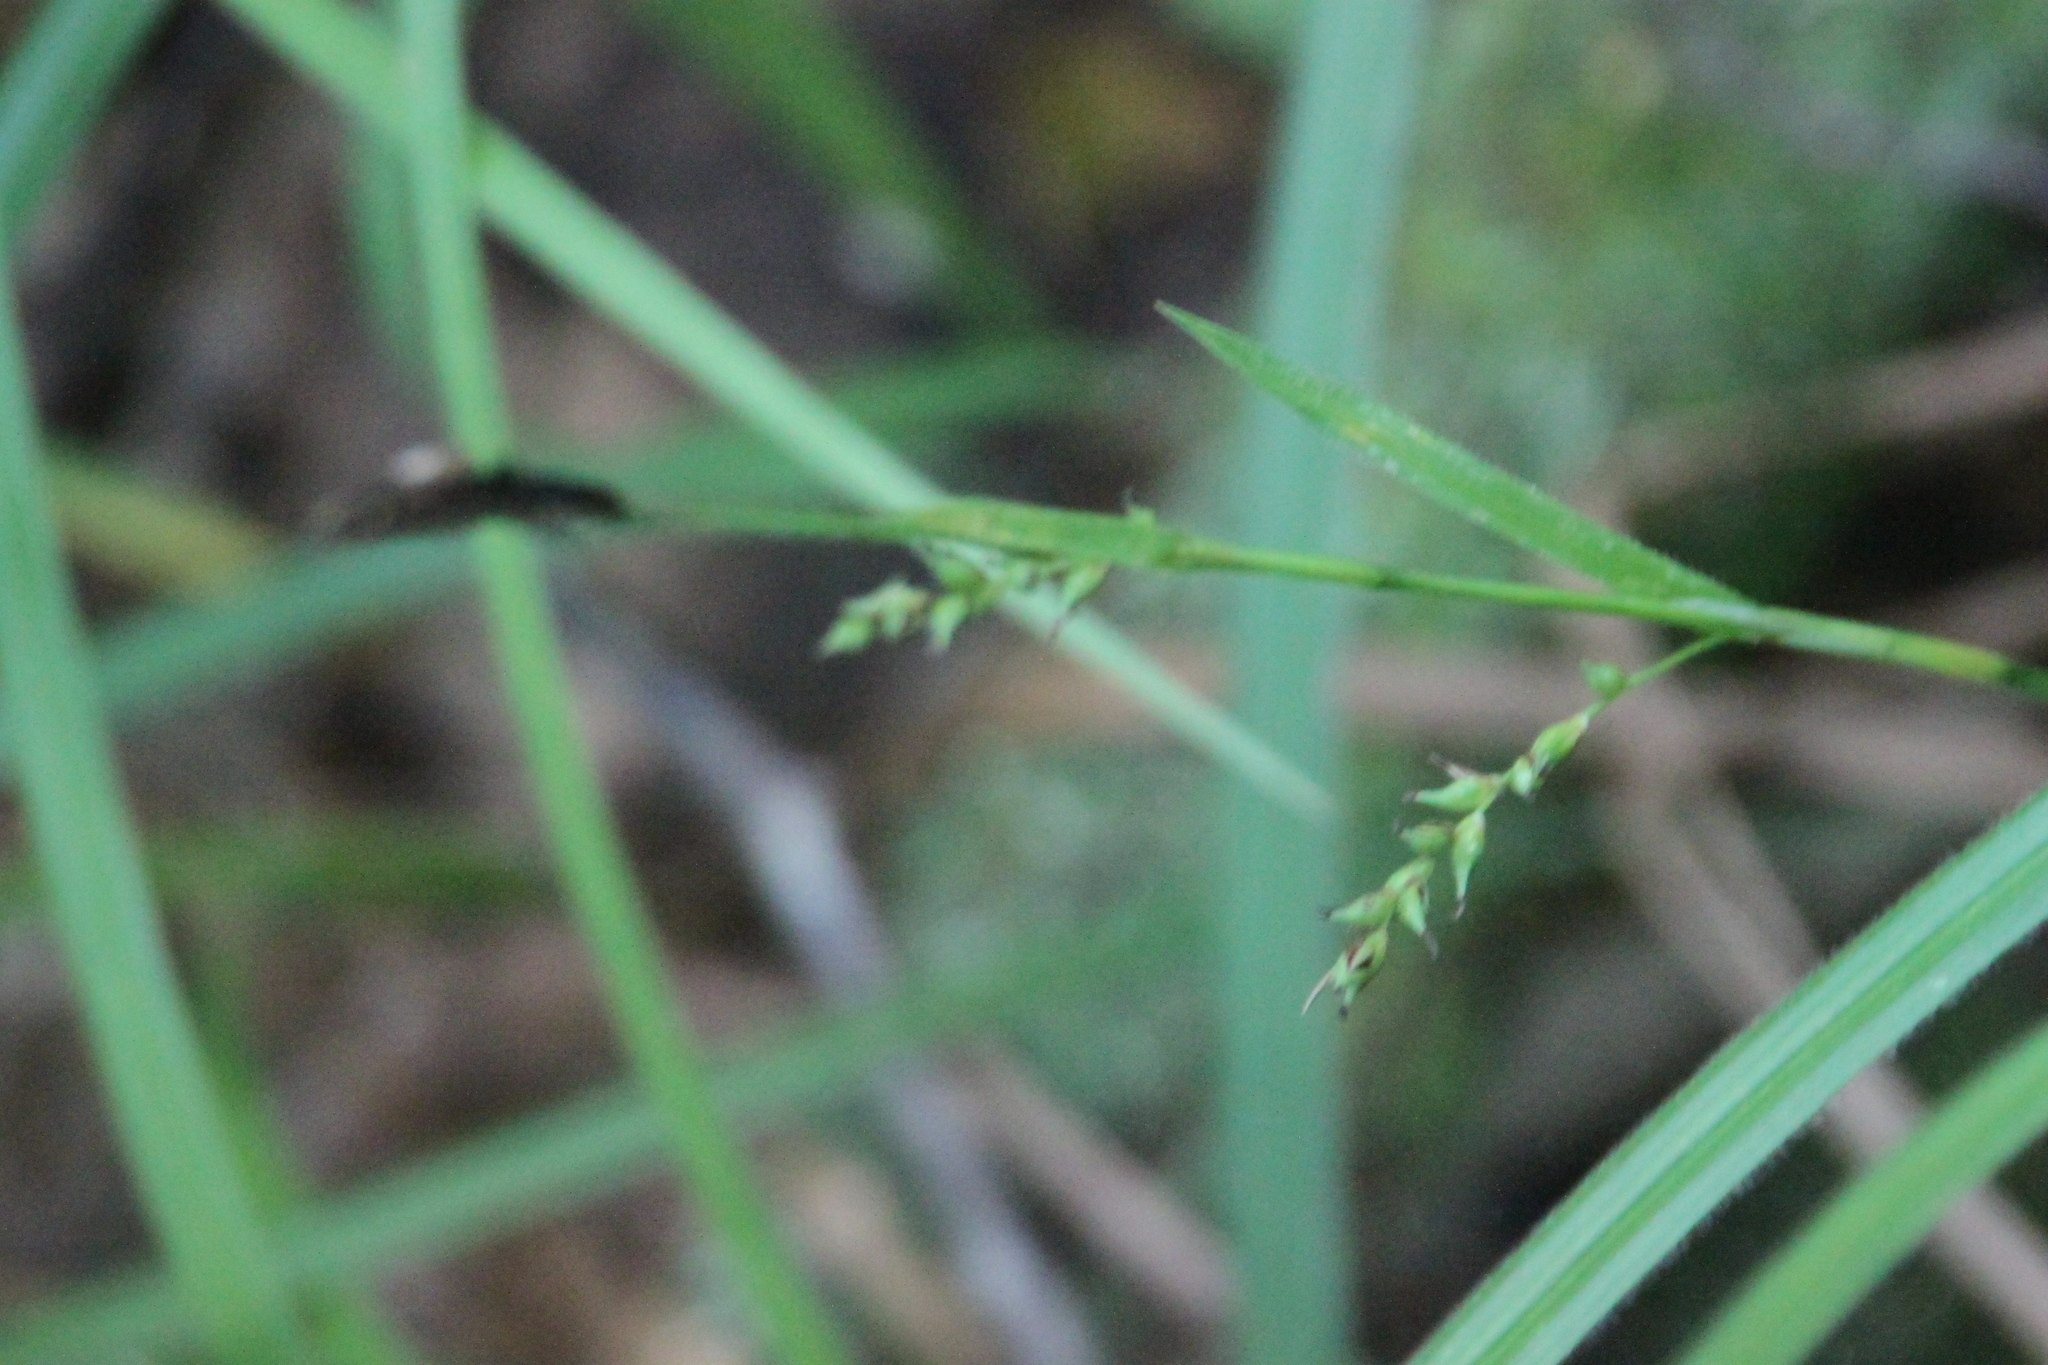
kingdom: Plantae
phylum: Tracheophyta
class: Liliopsida
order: Poales
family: Cyperaceae
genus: Carex
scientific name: Carex pilosa
